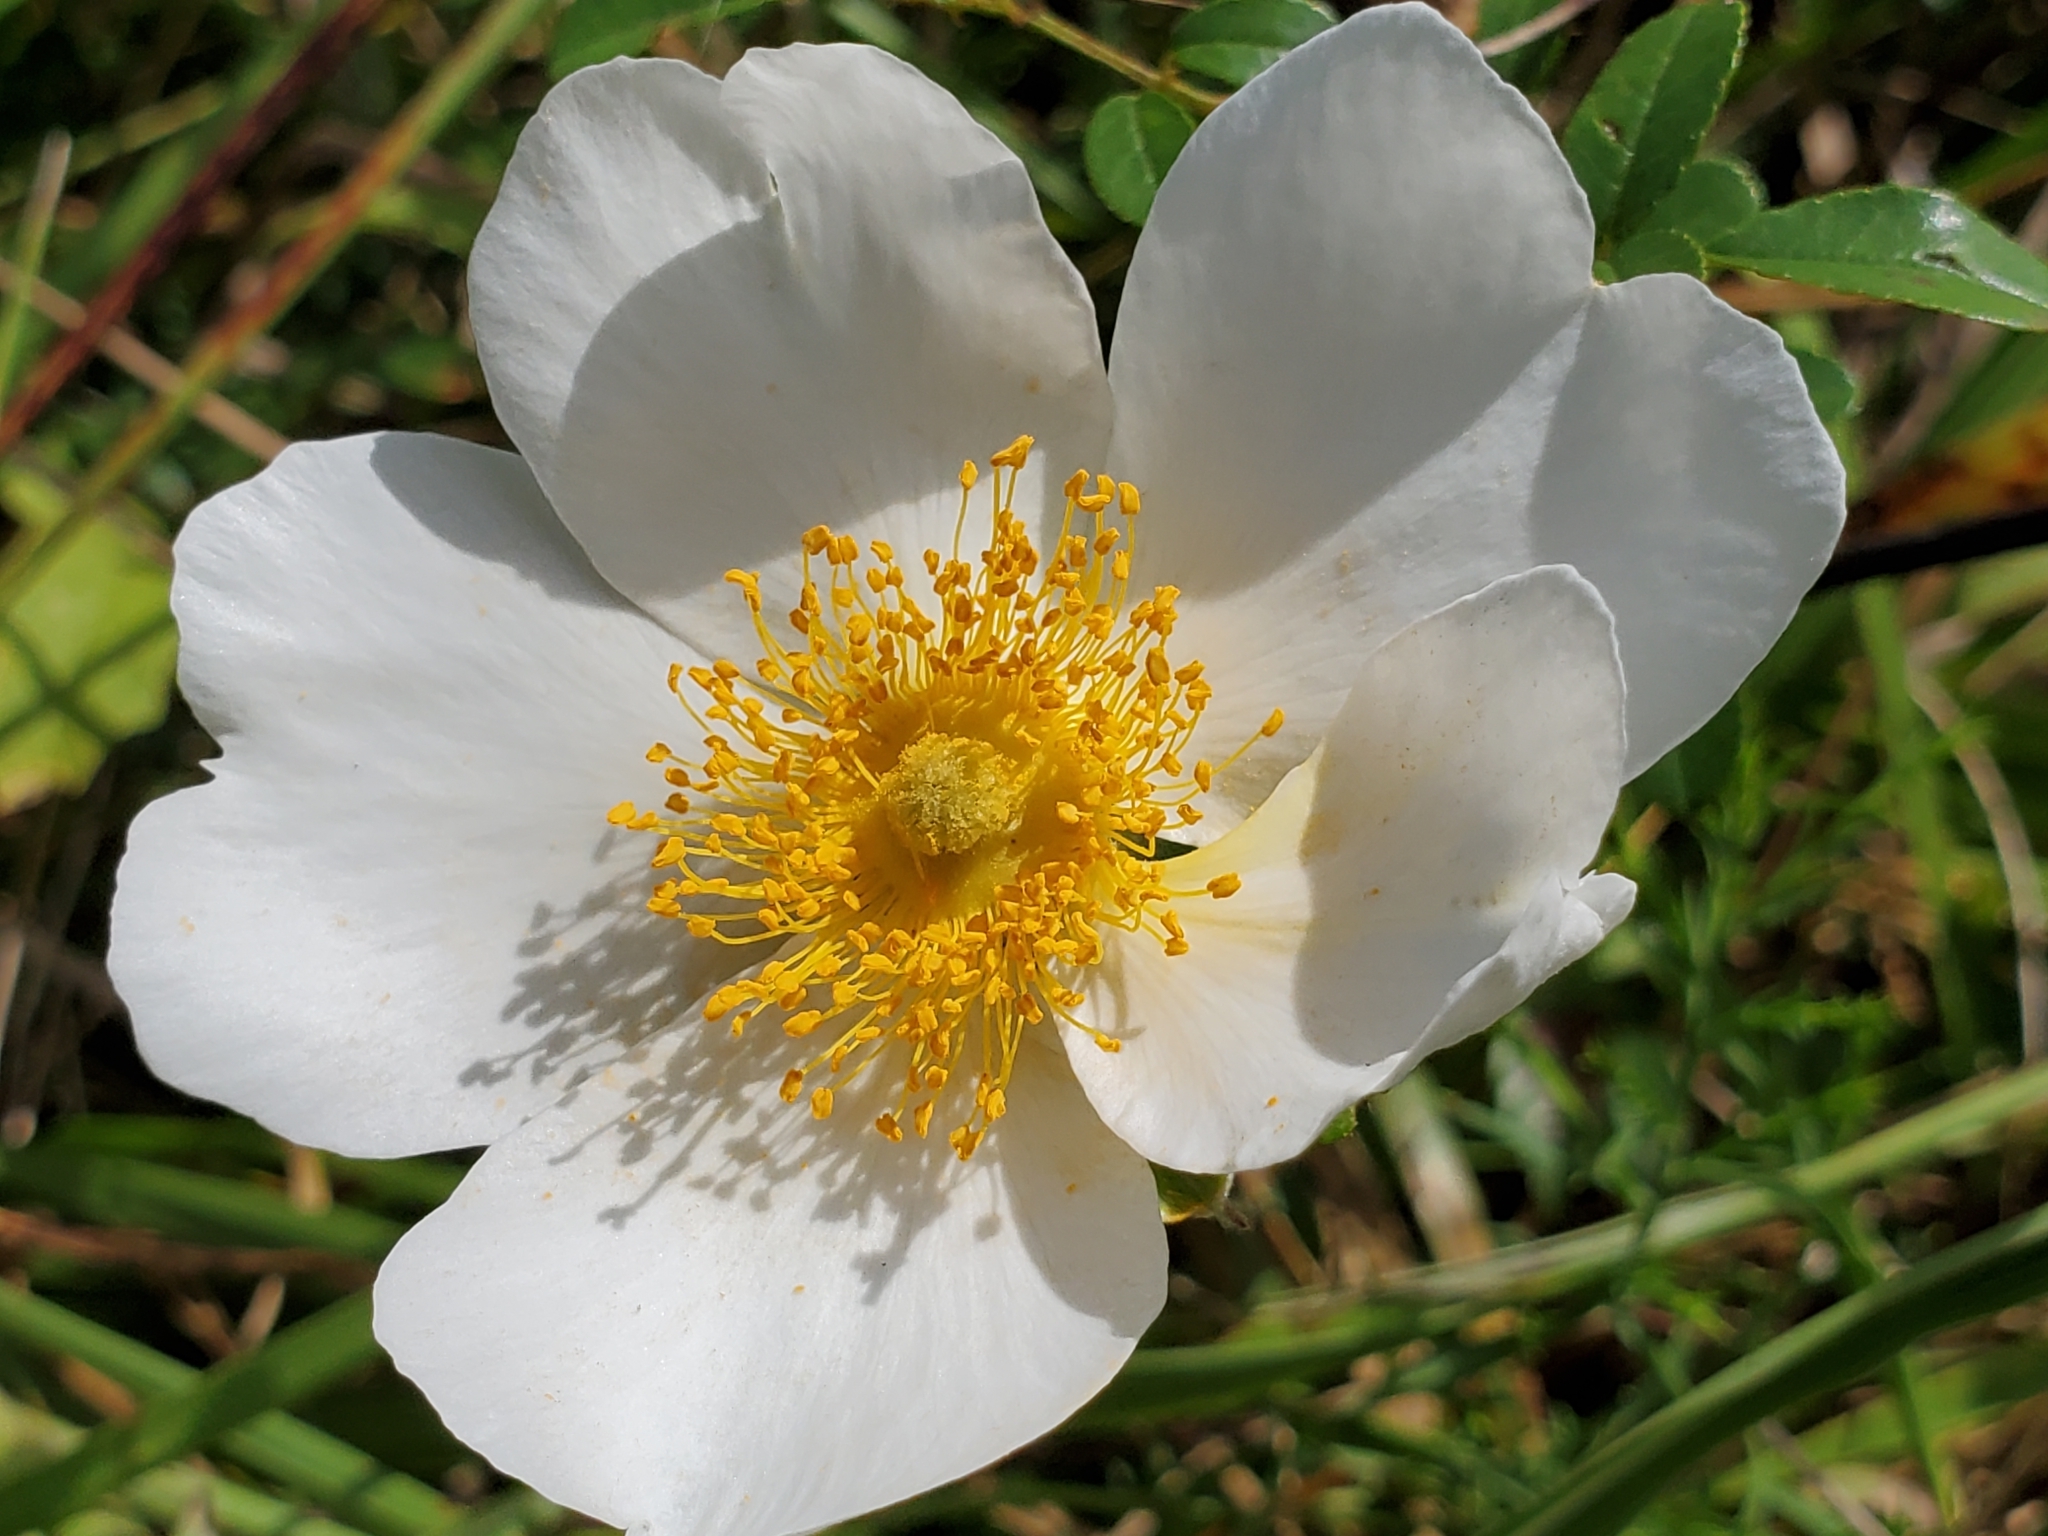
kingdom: Plantae
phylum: Tracheophyta
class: Magnoliopsida
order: Rosales
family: Rosaceae
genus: Rosa
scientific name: Rosa bracteata
